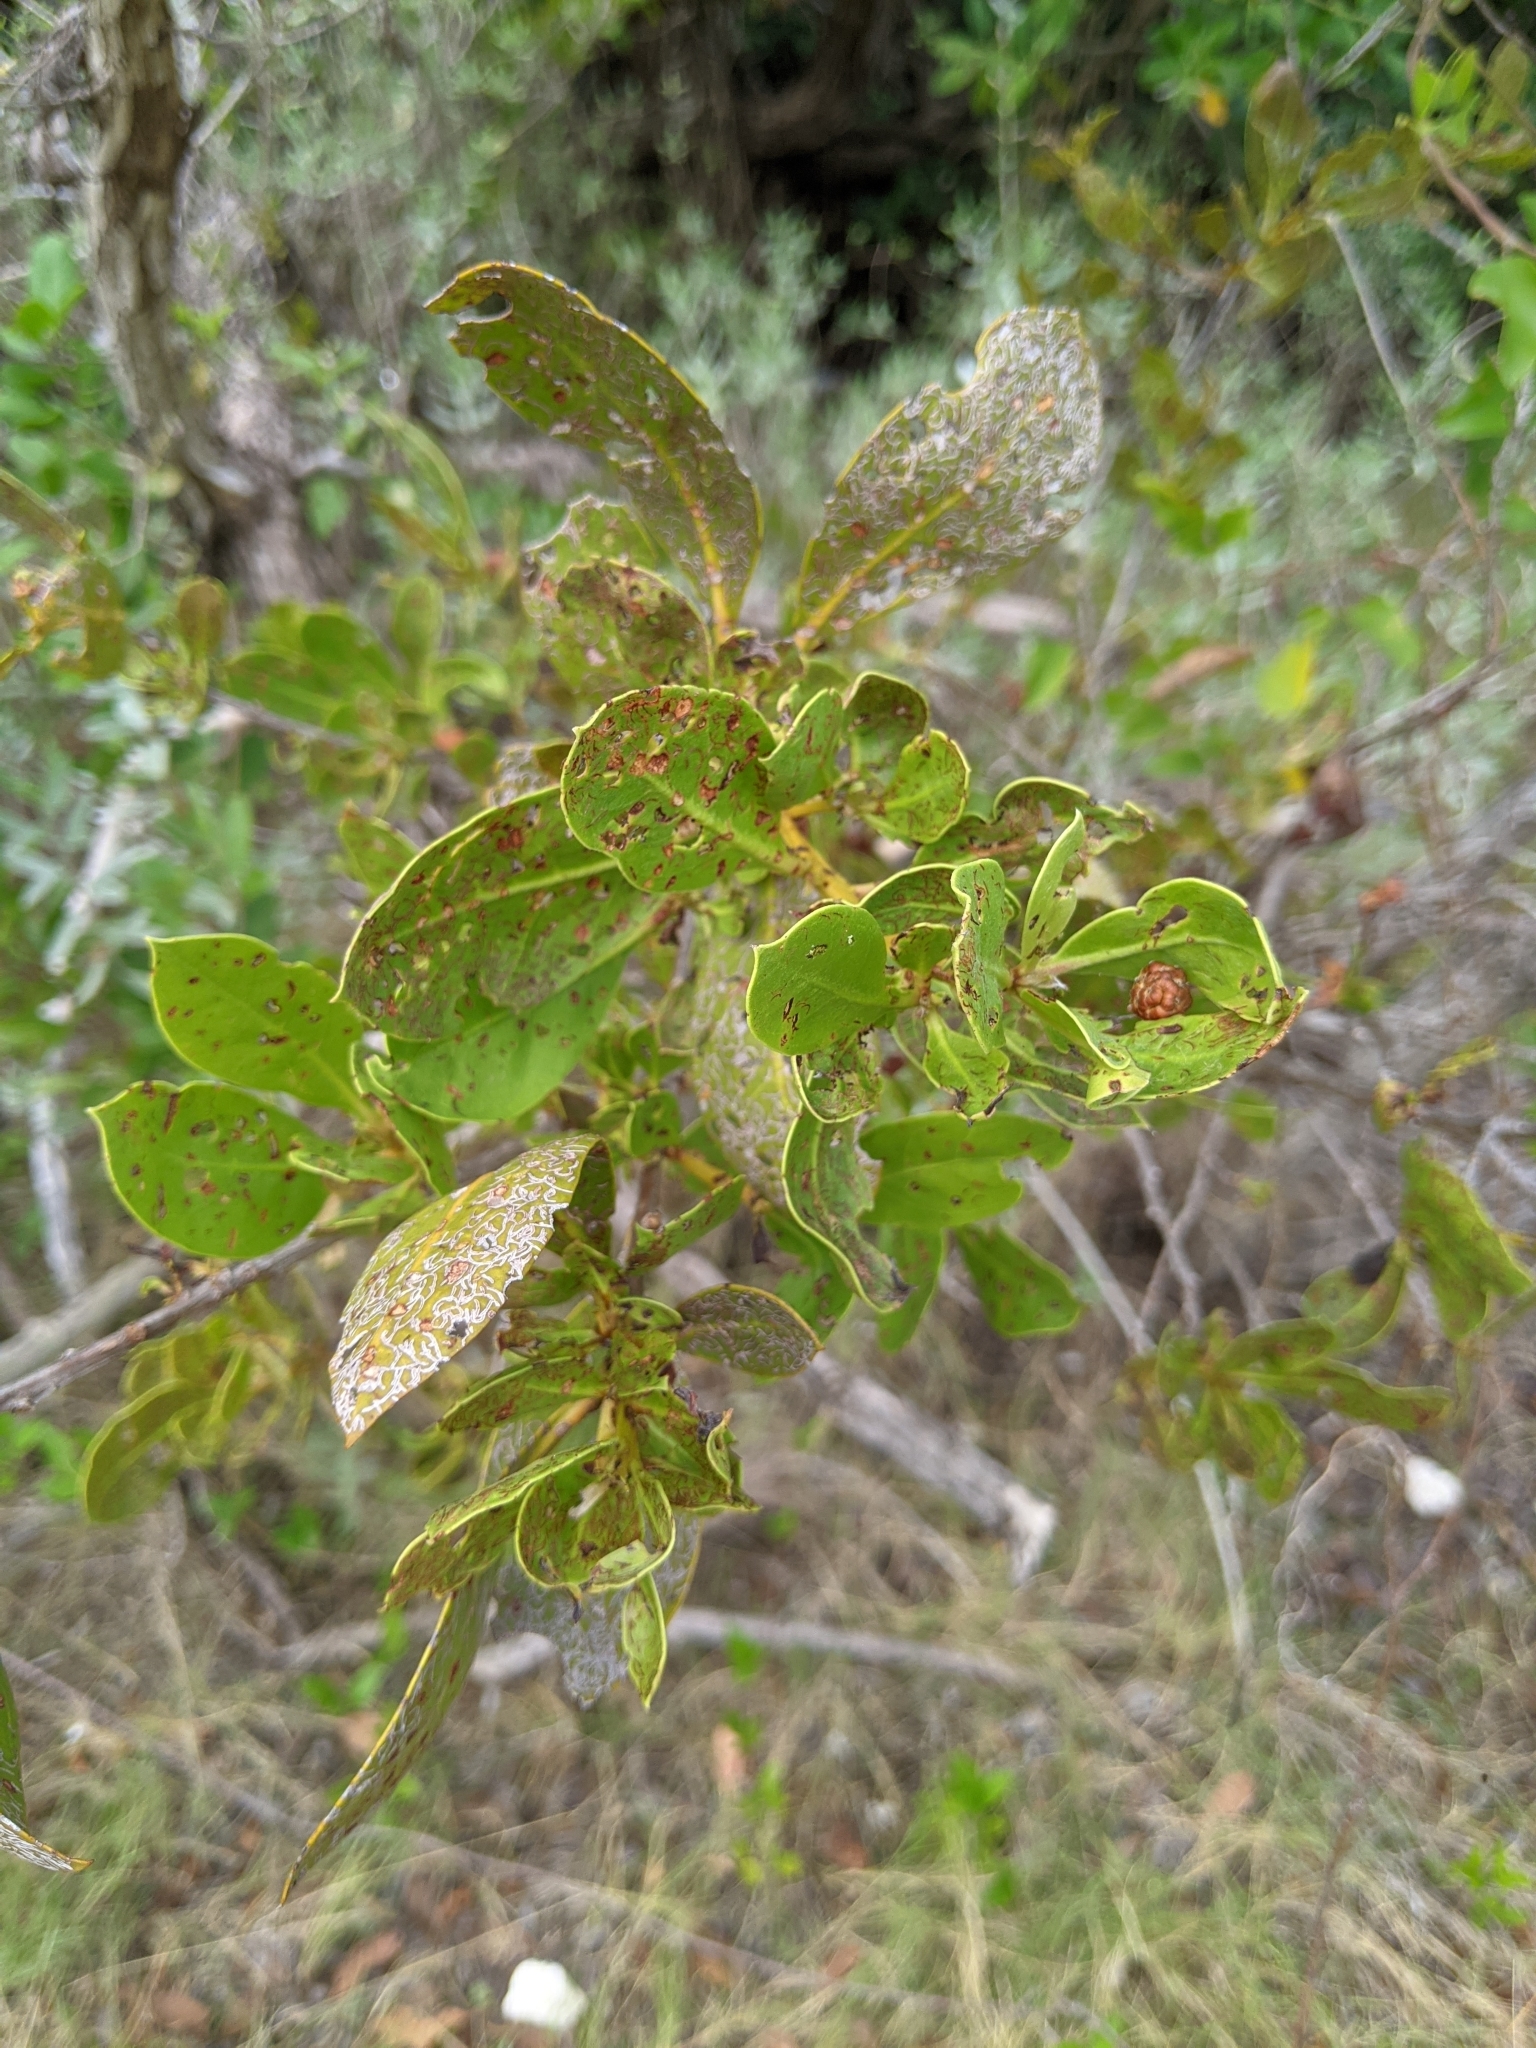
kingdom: Animalia
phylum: Arthropoda
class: Insecta
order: Coleoptera
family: Chrysomelidae
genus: Chaetocnema
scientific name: Chaetocnema brunnescens
